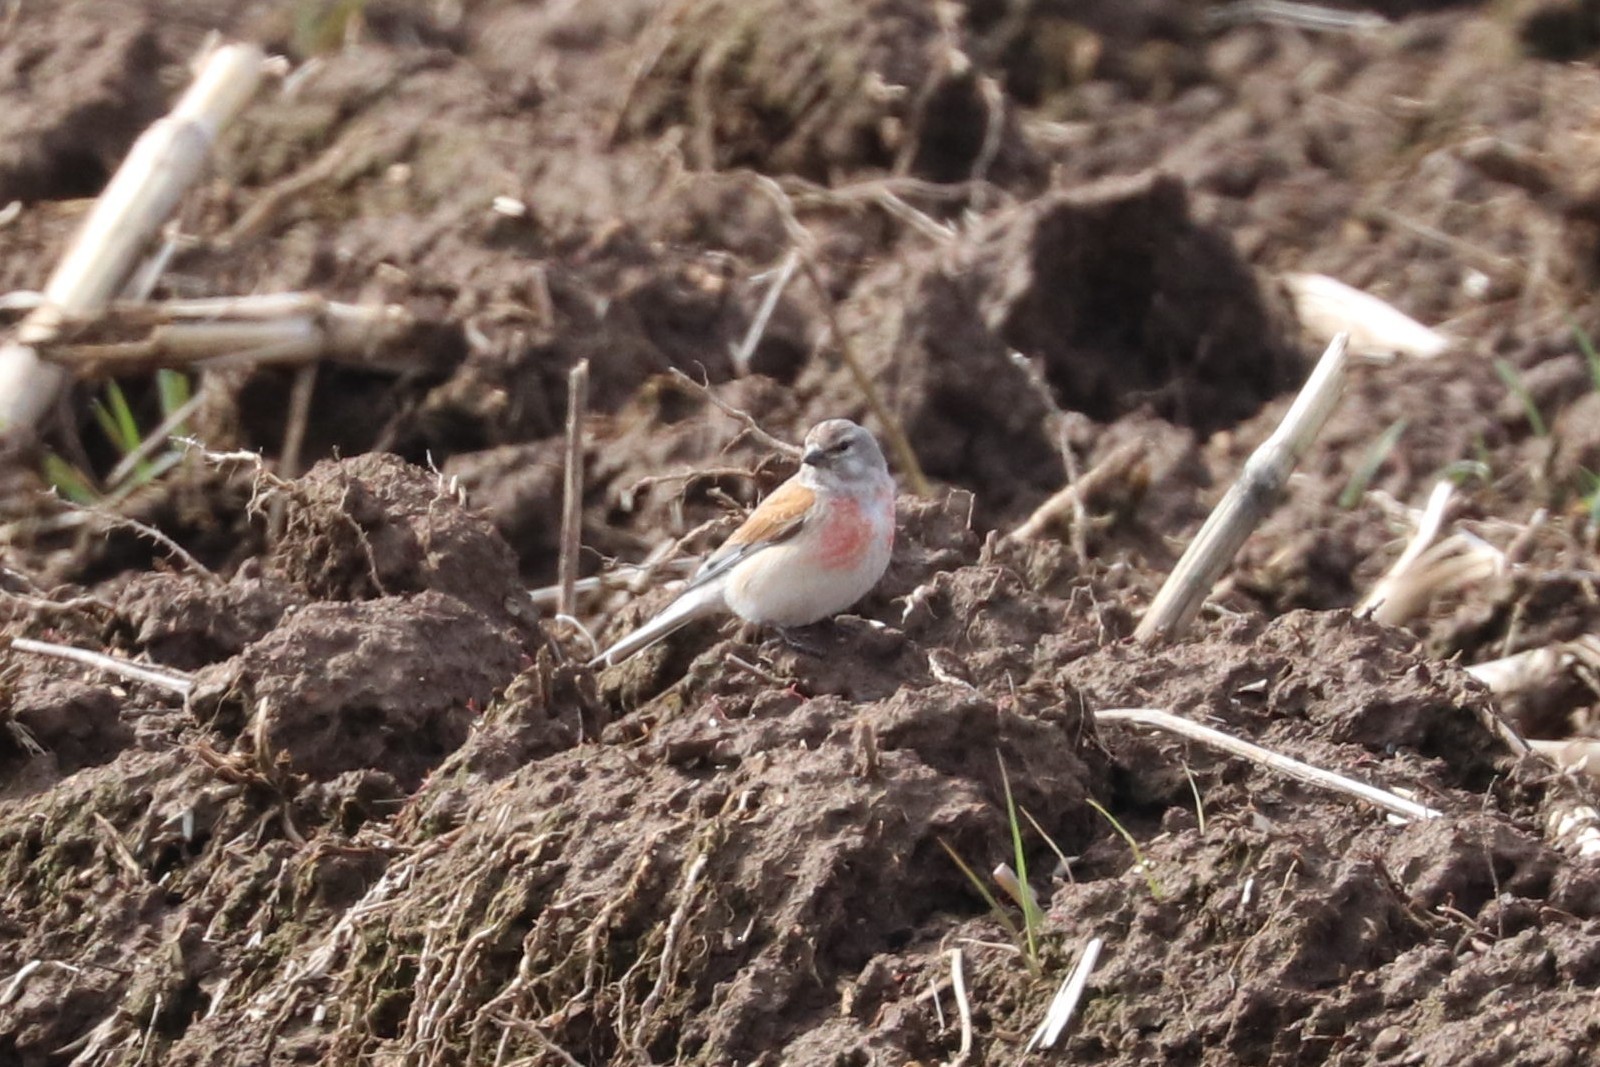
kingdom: Animalia
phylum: Chordata
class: Aves
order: Passeriformes
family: Fringillidae
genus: Linaria
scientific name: Linaria cannabina
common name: Common linnet
